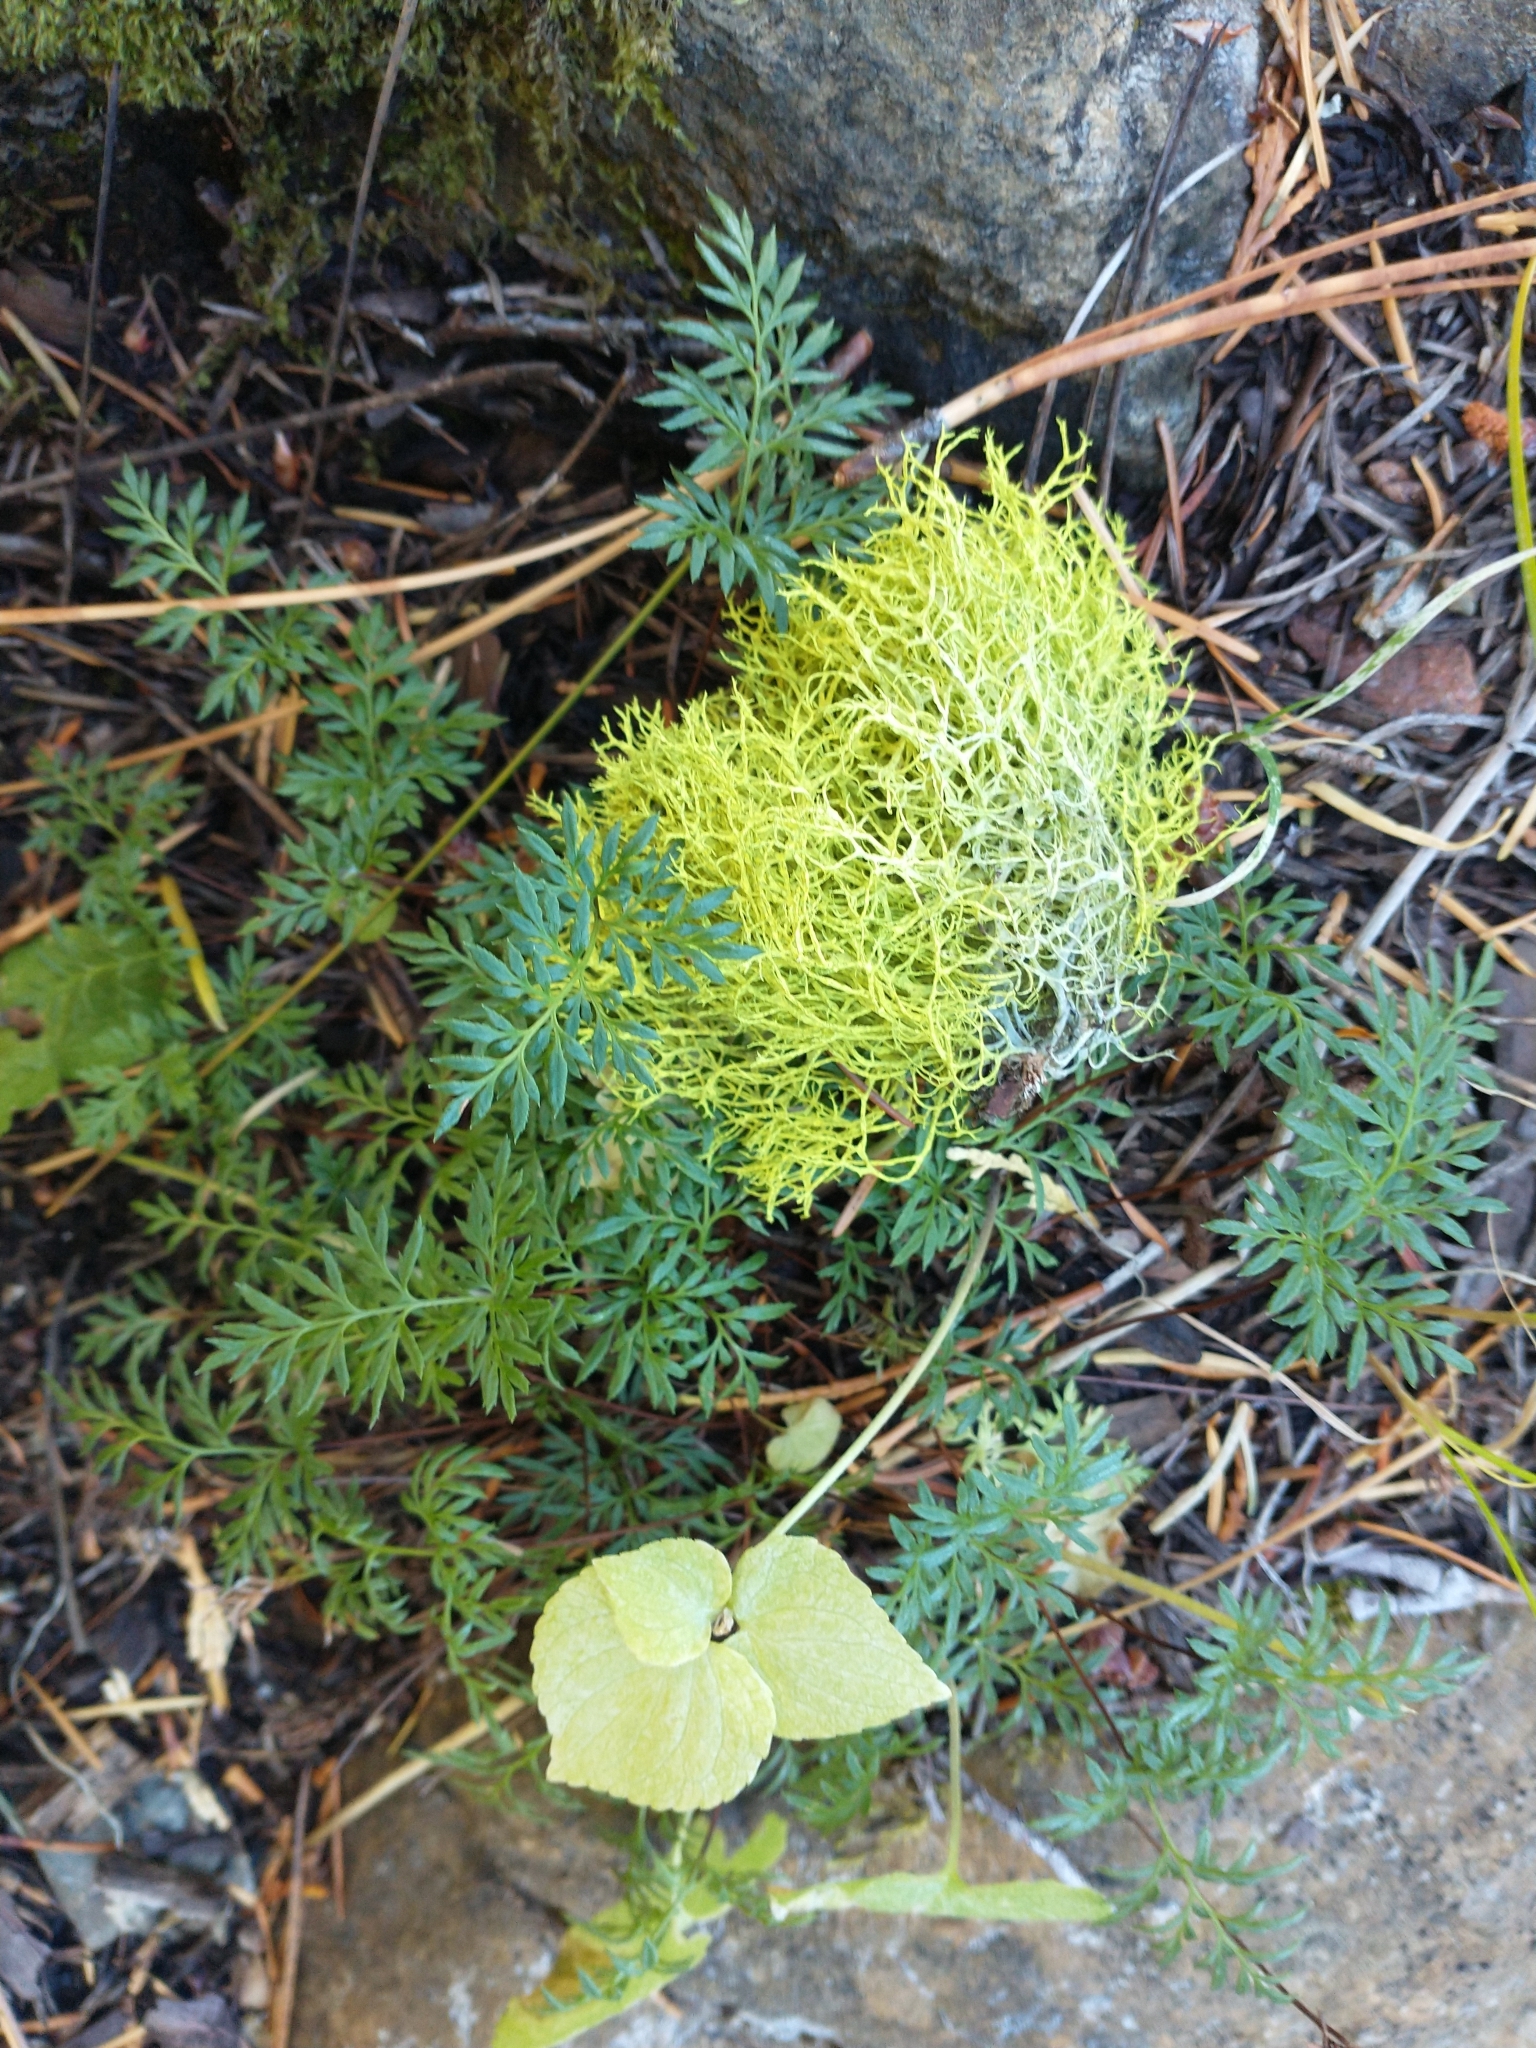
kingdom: Plantae
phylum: Tracheophyta
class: Polypodiopsida
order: Polypodiales
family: Pteridaceae
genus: Aspidotis
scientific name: Aspidotis densa
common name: Indian's dream
